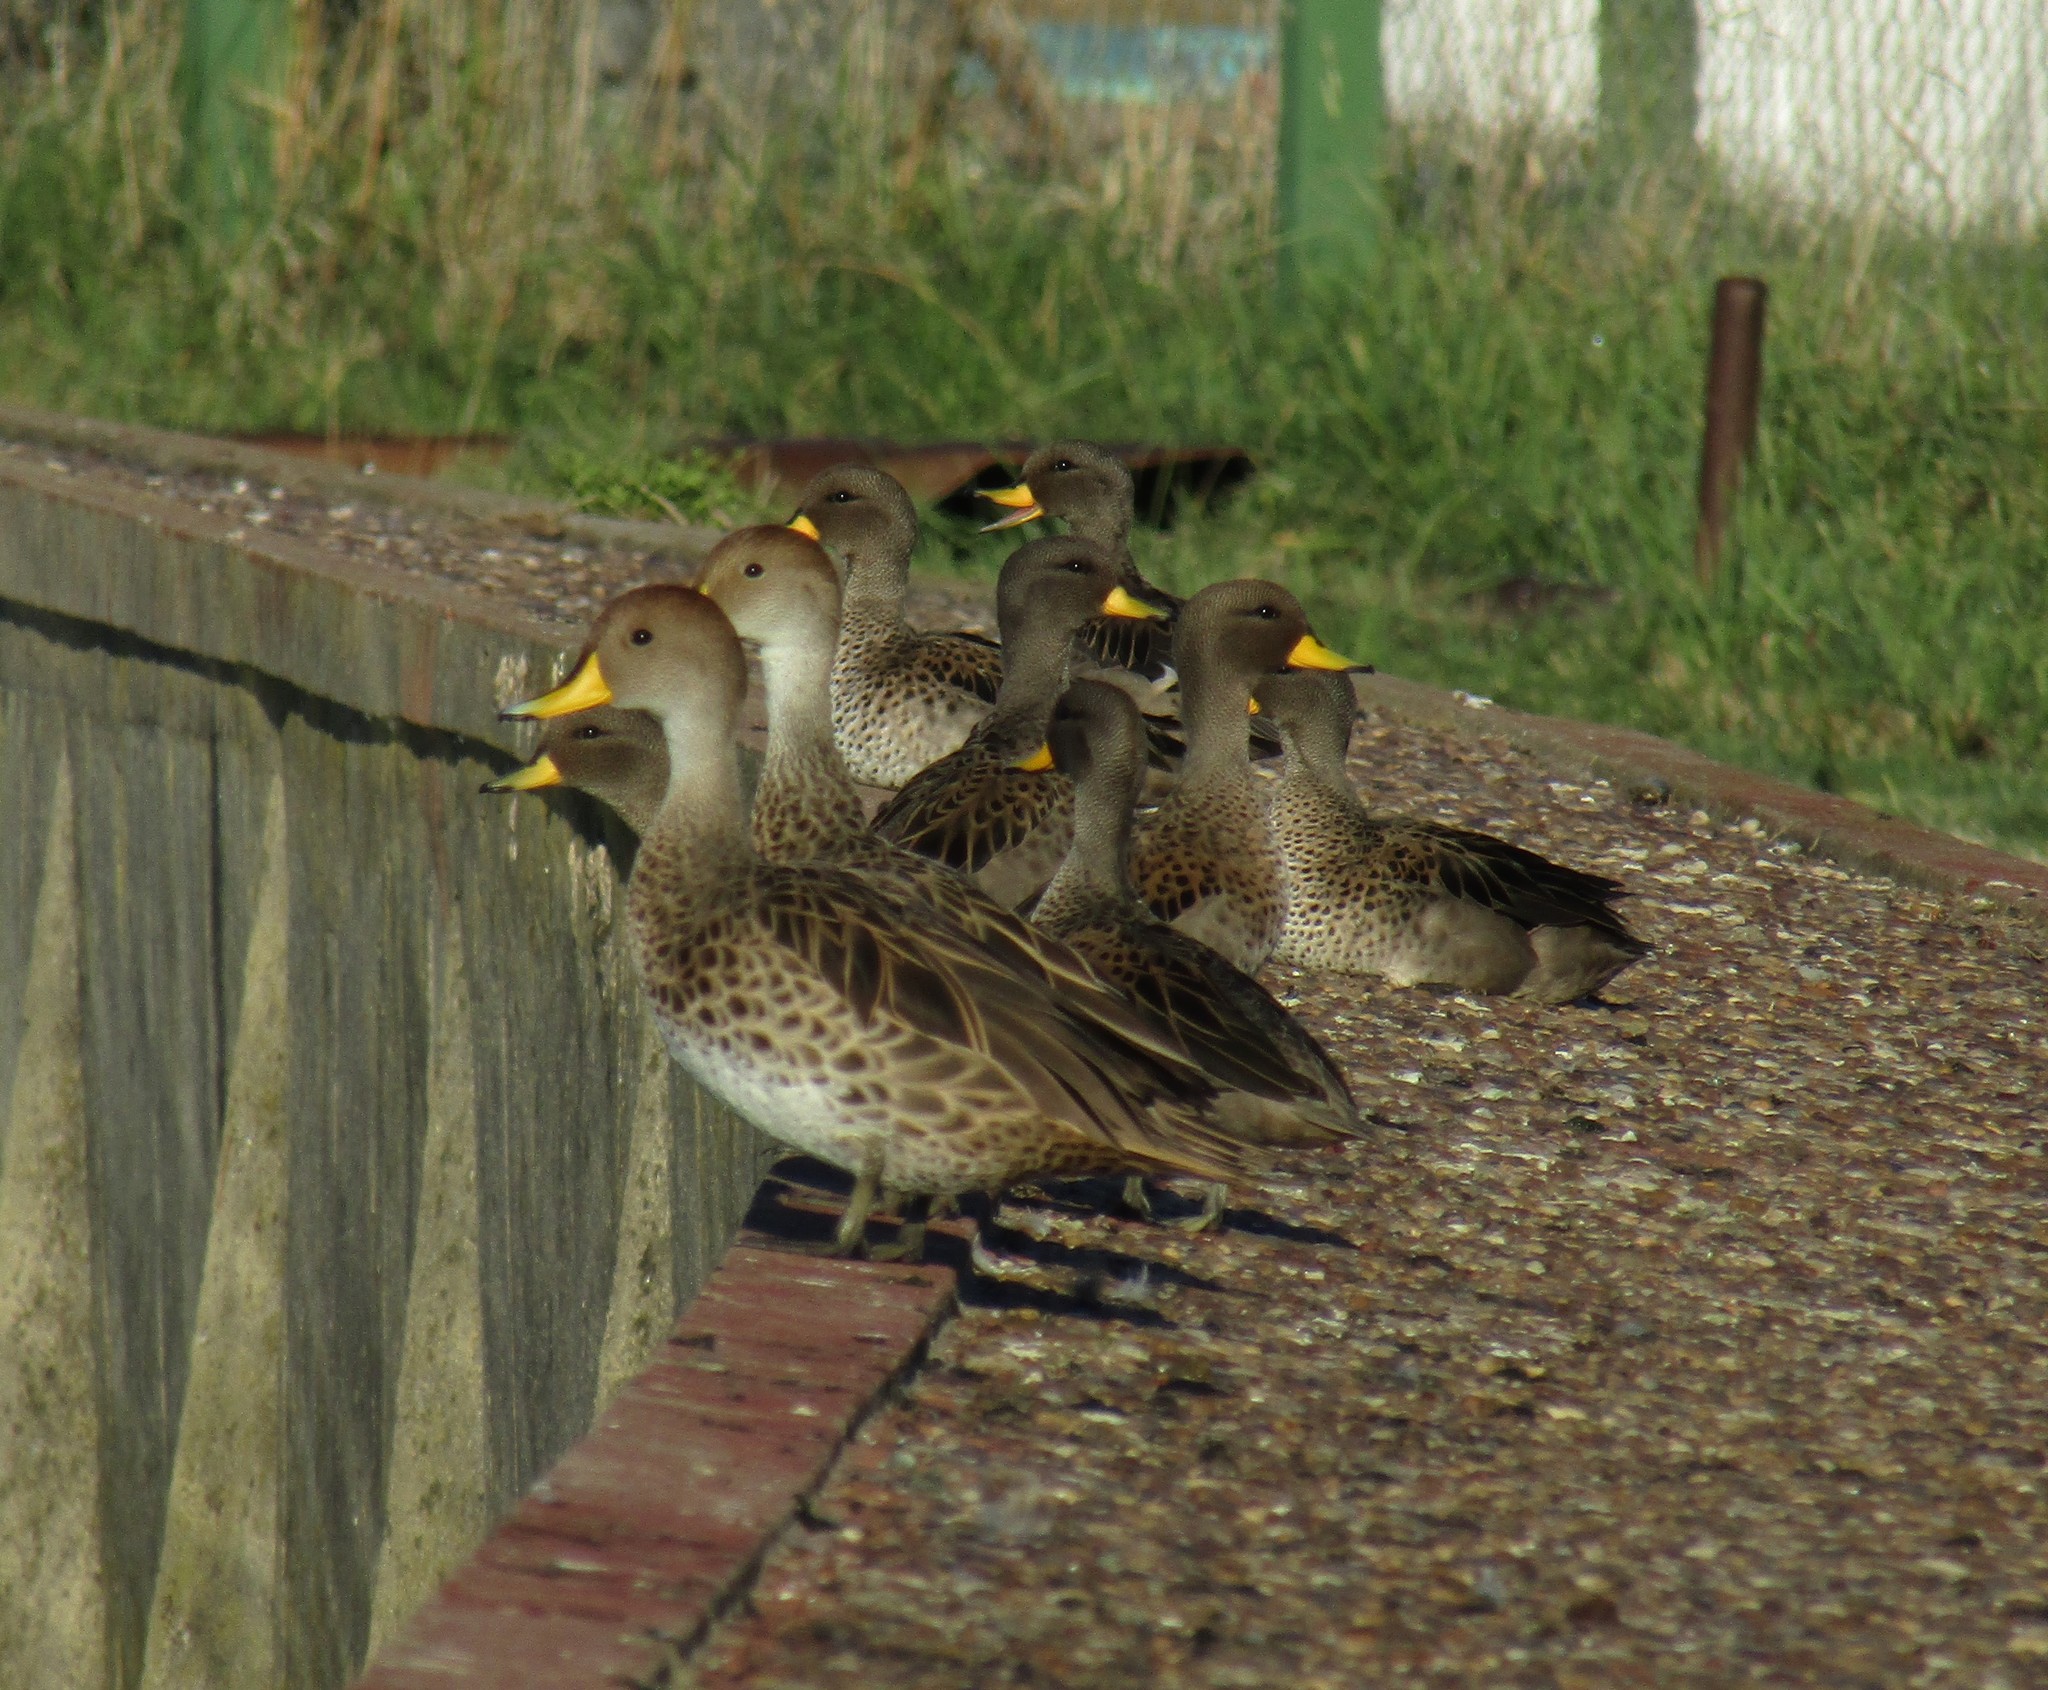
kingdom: Animalia
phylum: Chordata
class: Aves
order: Anseriformes
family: Anatidae
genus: Anas
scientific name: Anas georgica
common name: Yellow-billed pintail
